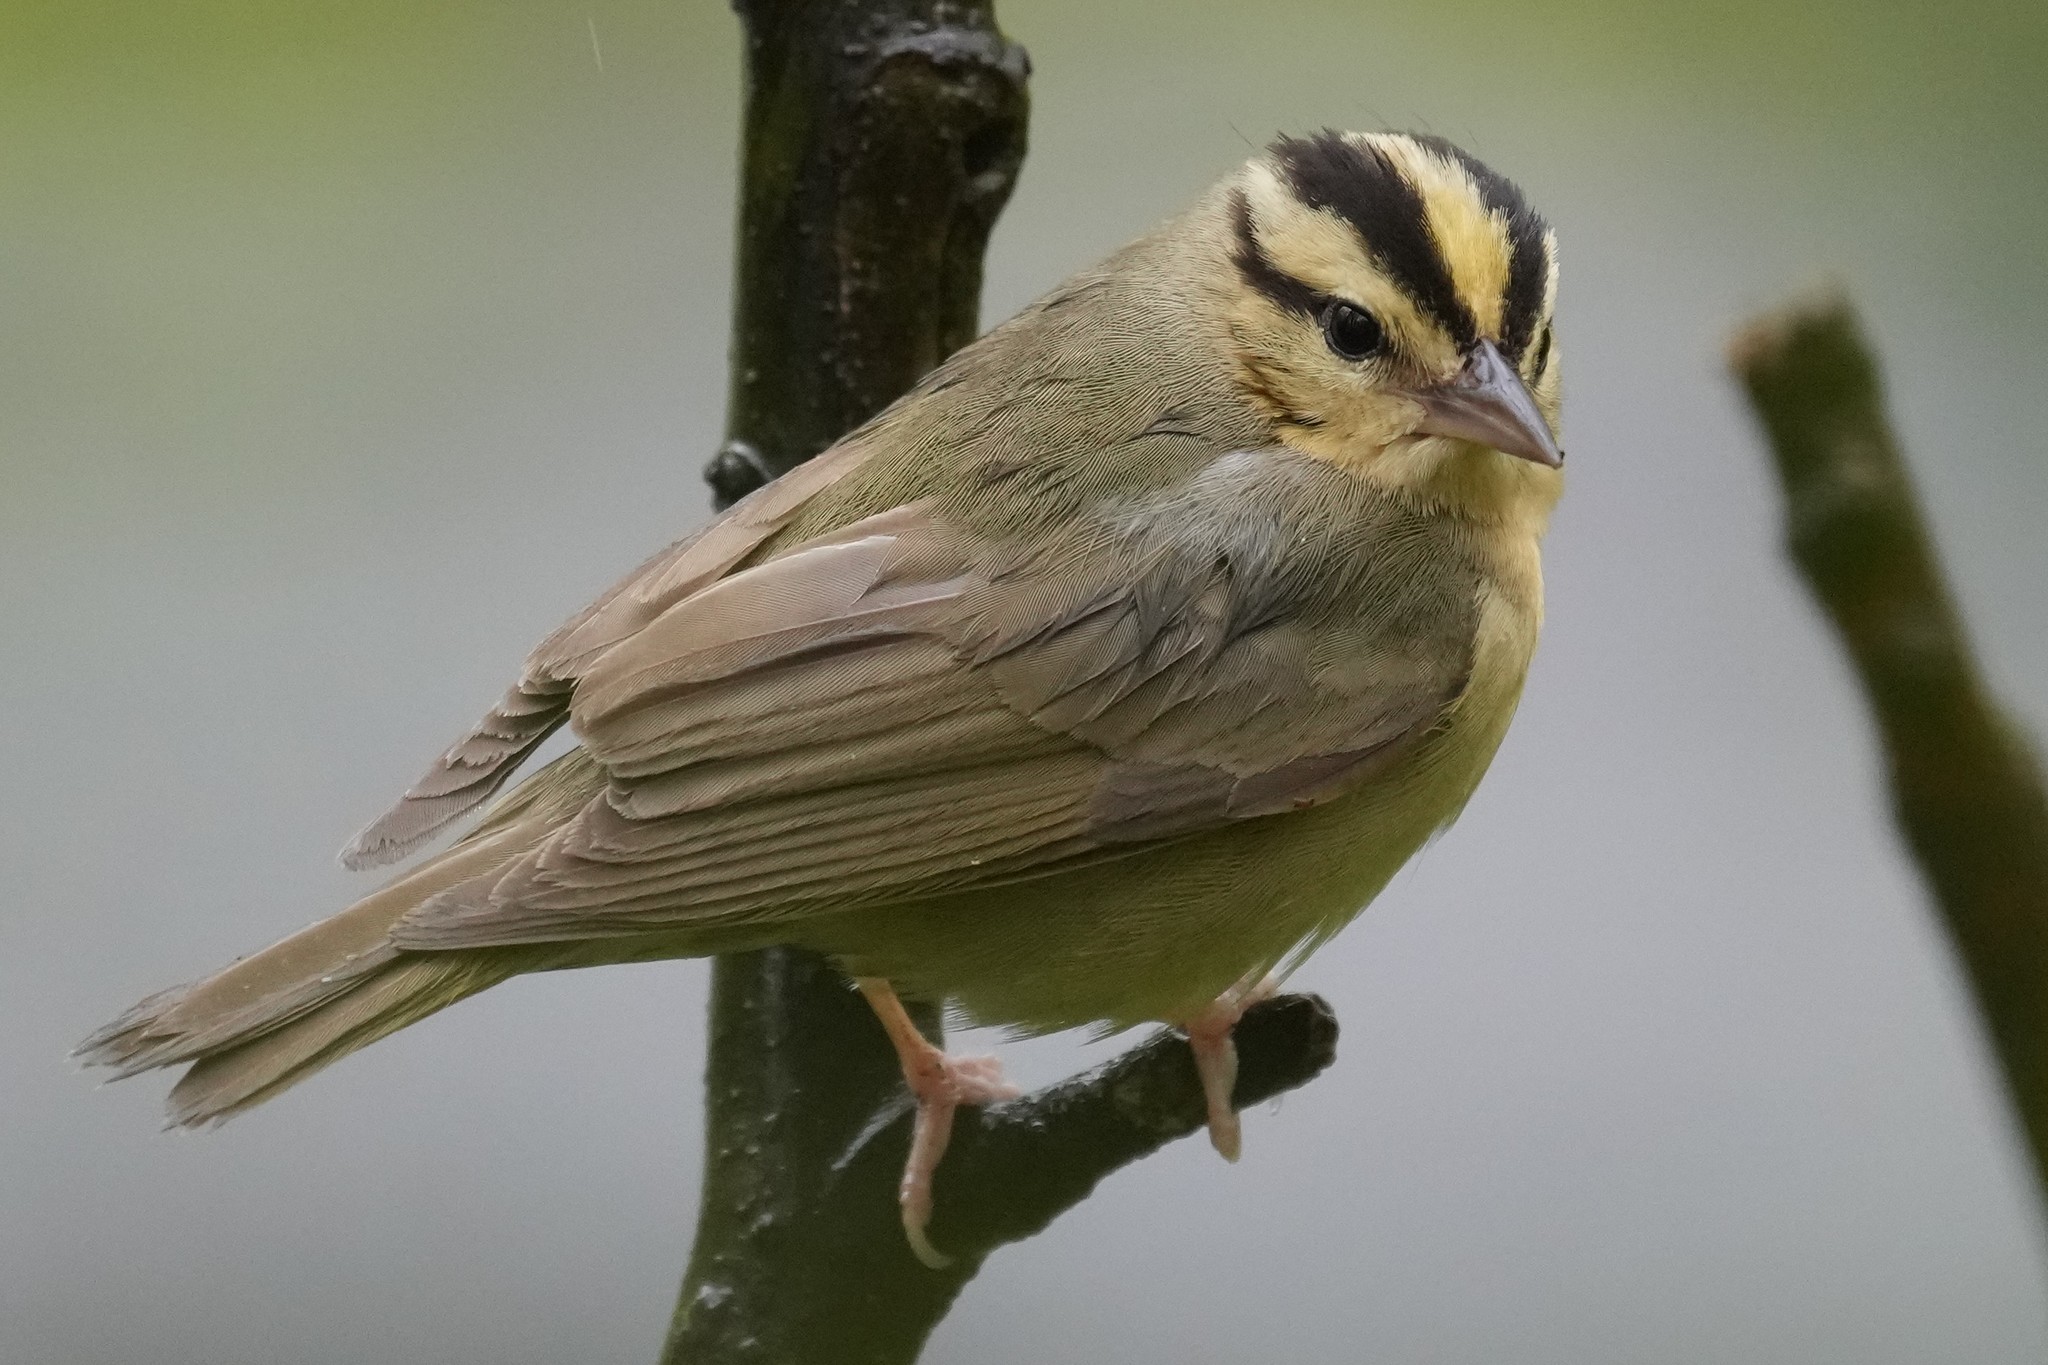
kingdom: Animalia
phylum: Chordata
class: Aves
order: Passeriformes
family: Parulidae
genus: Helmitheros
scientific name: Helmitheros vermivorum
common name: Worm-eating warbler
